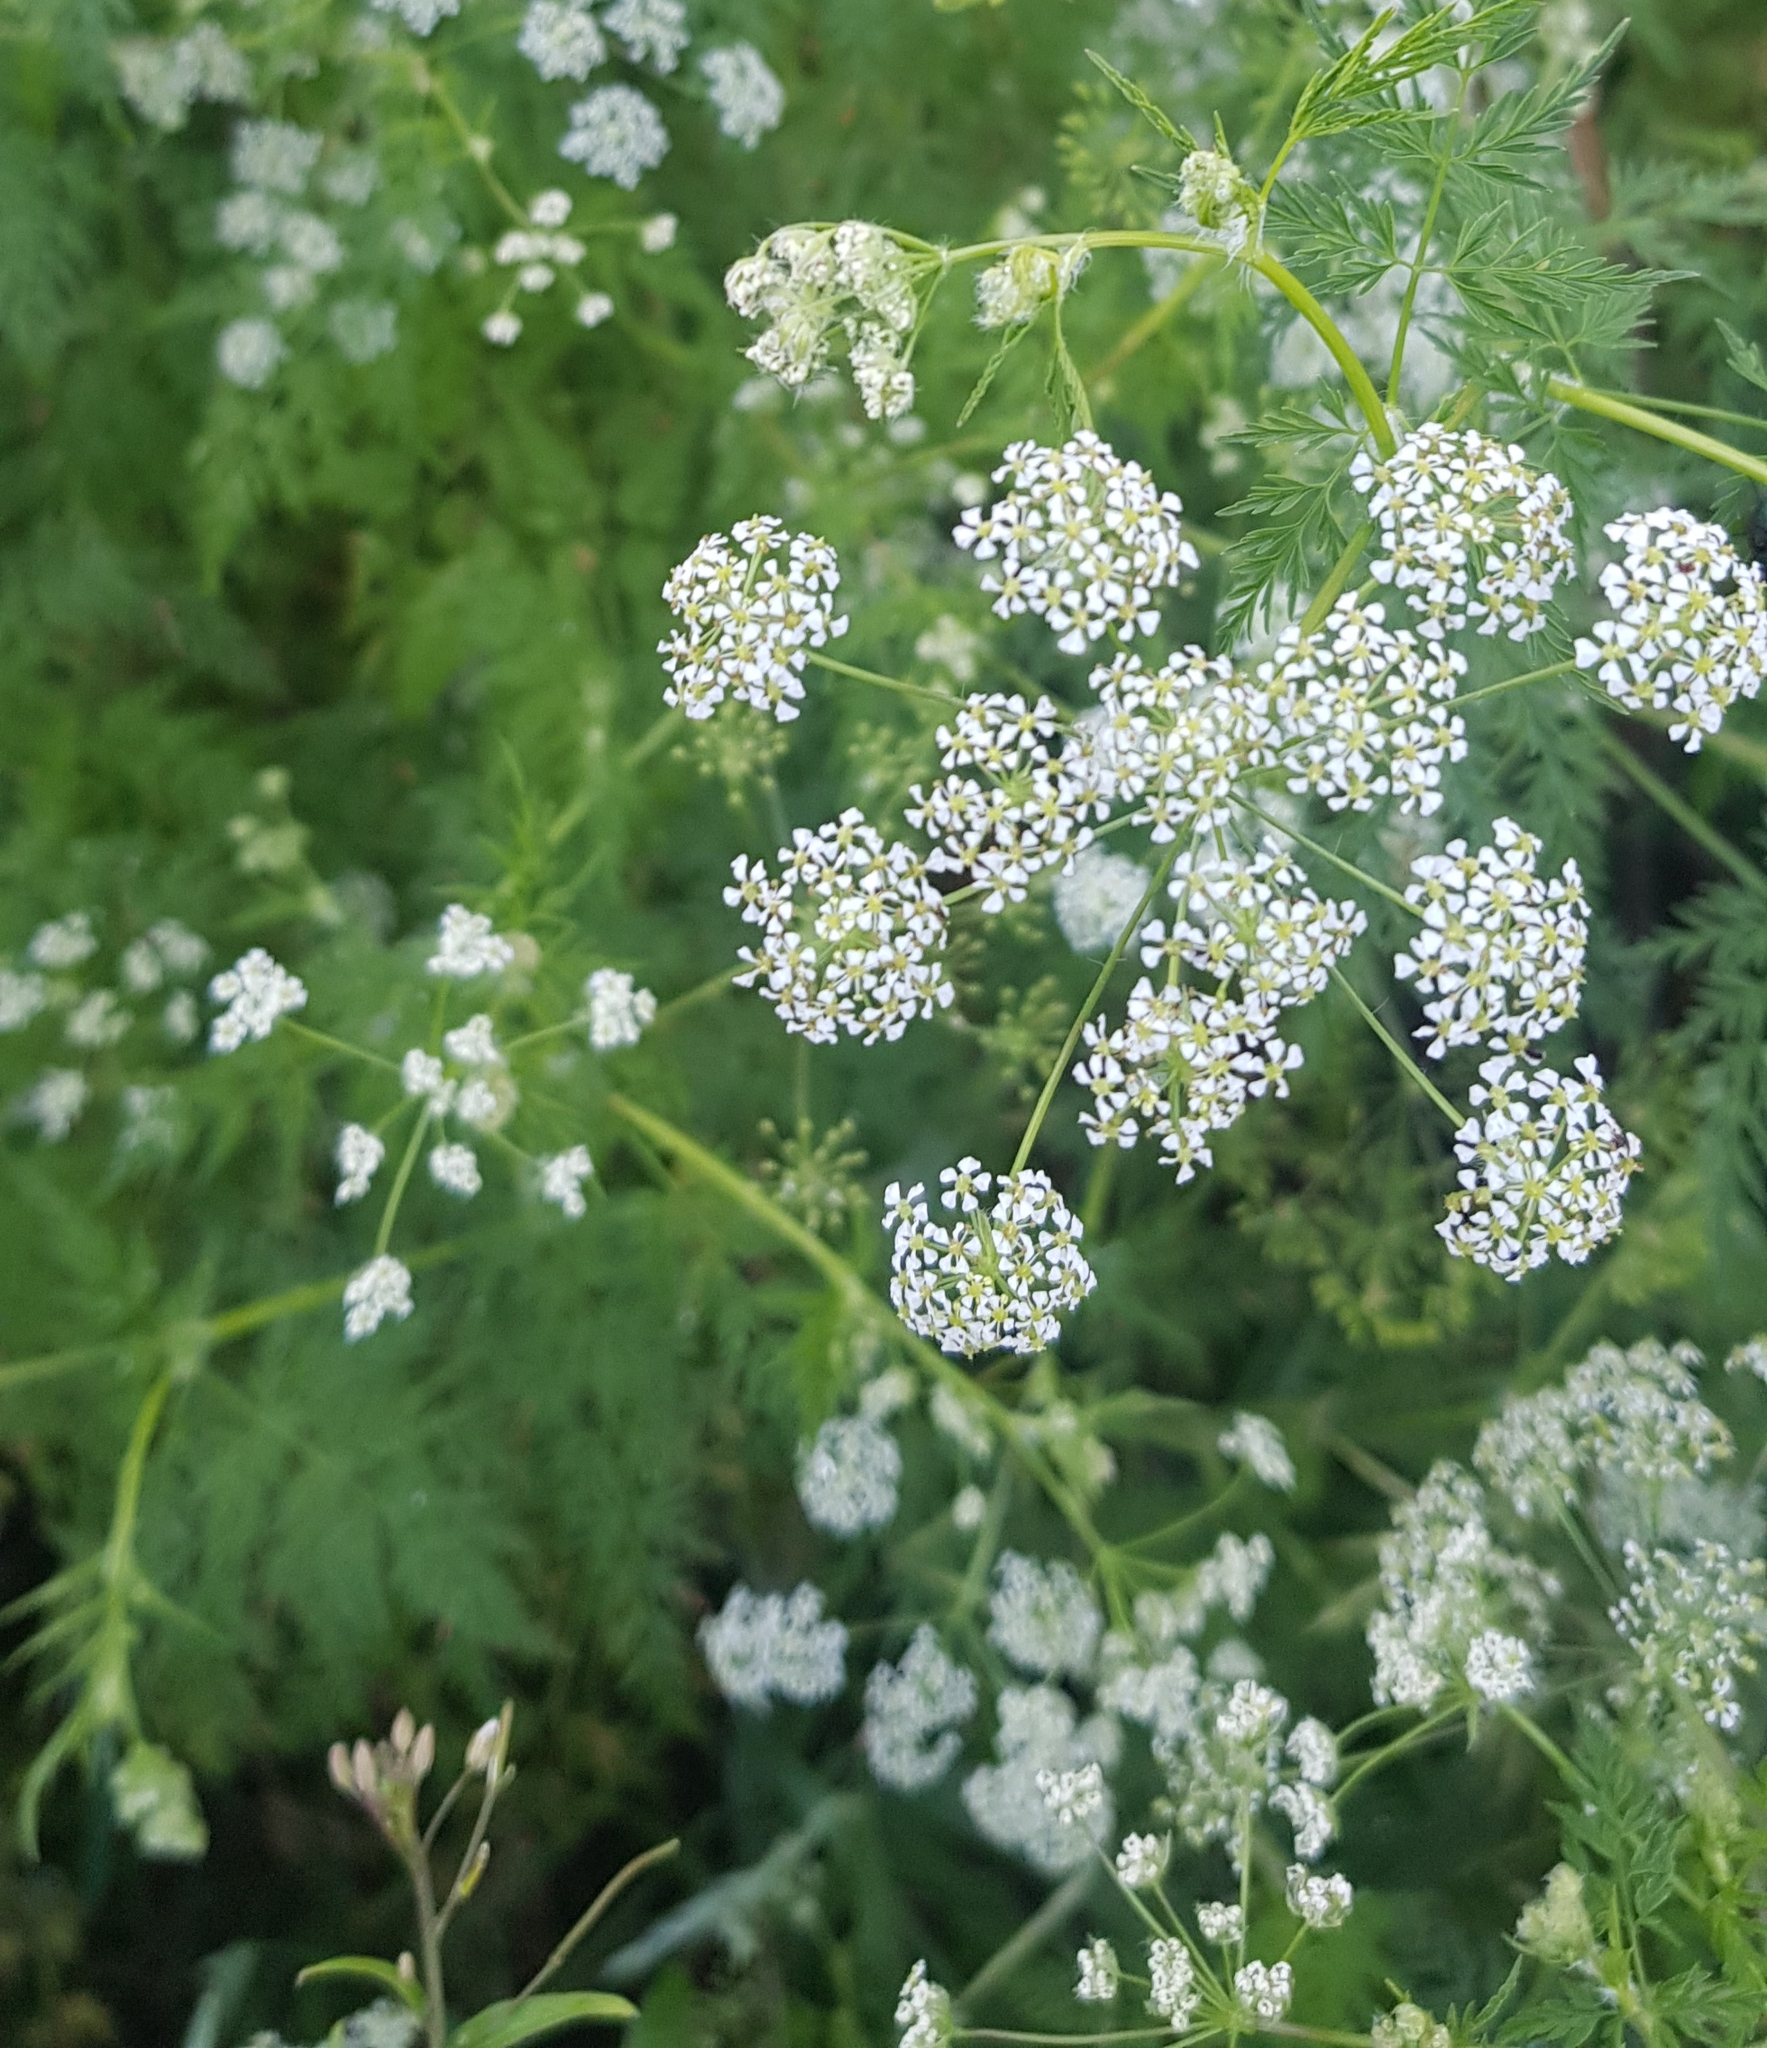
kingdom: Plantae
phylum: Tracheophyta
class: Magnoliopsida
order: Apiales
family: Apiaceae
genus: Sphallerocarpus
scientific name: Sphallerocarpus gracilis
